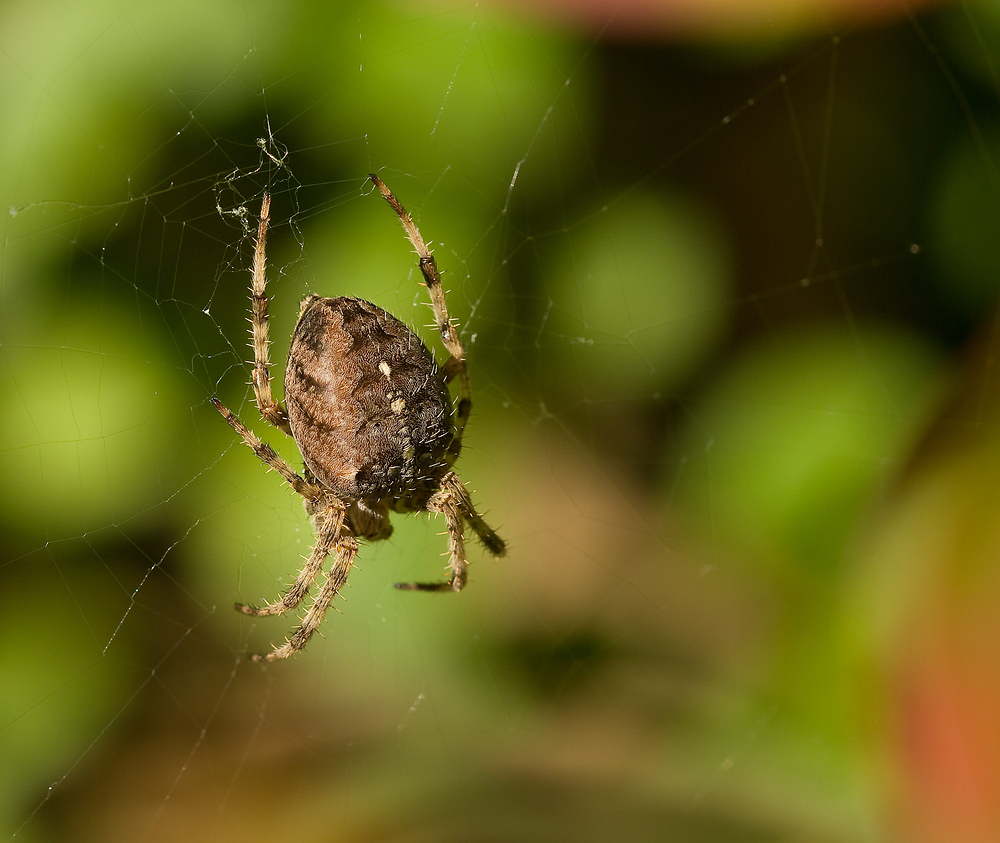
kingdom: Animalia
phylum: Arthropoda
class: Arachnida
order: Araneae
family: Araneidae
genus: Araneus
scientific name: Araneus diadematus
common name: Cross orbweaver
